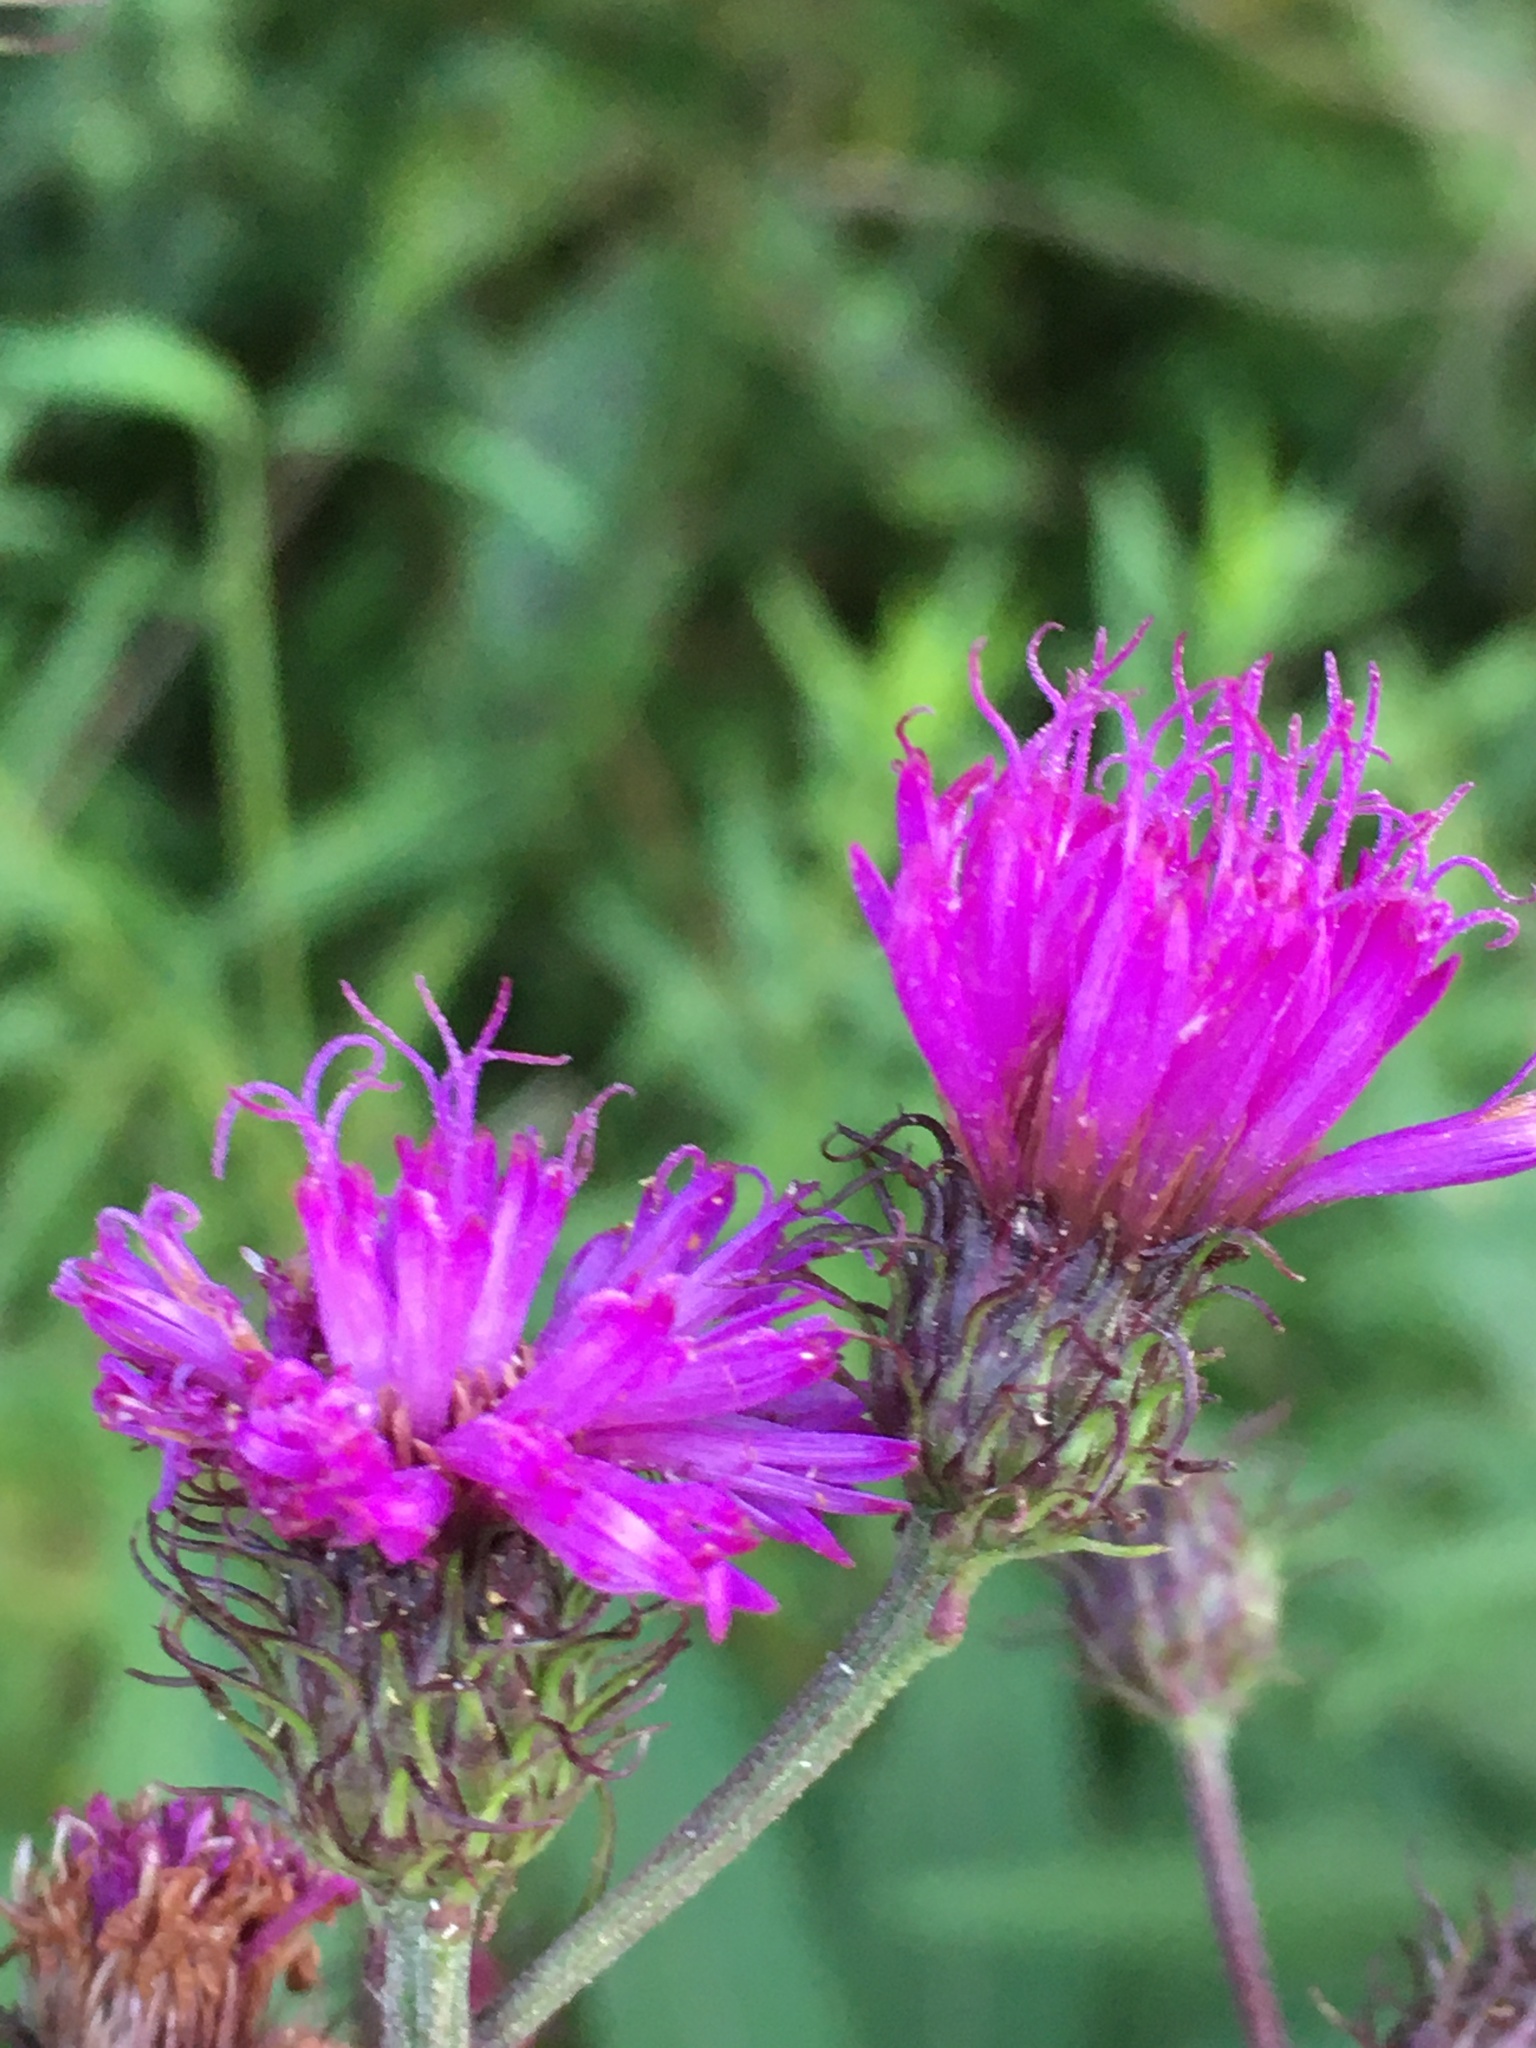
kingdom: Plantae
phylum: Tracheophyta
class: Magnoliopsida
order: Asterales
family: Asteraceae
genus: Vernonia
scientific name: Vernonia noveboracensis
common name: New york ironweed
